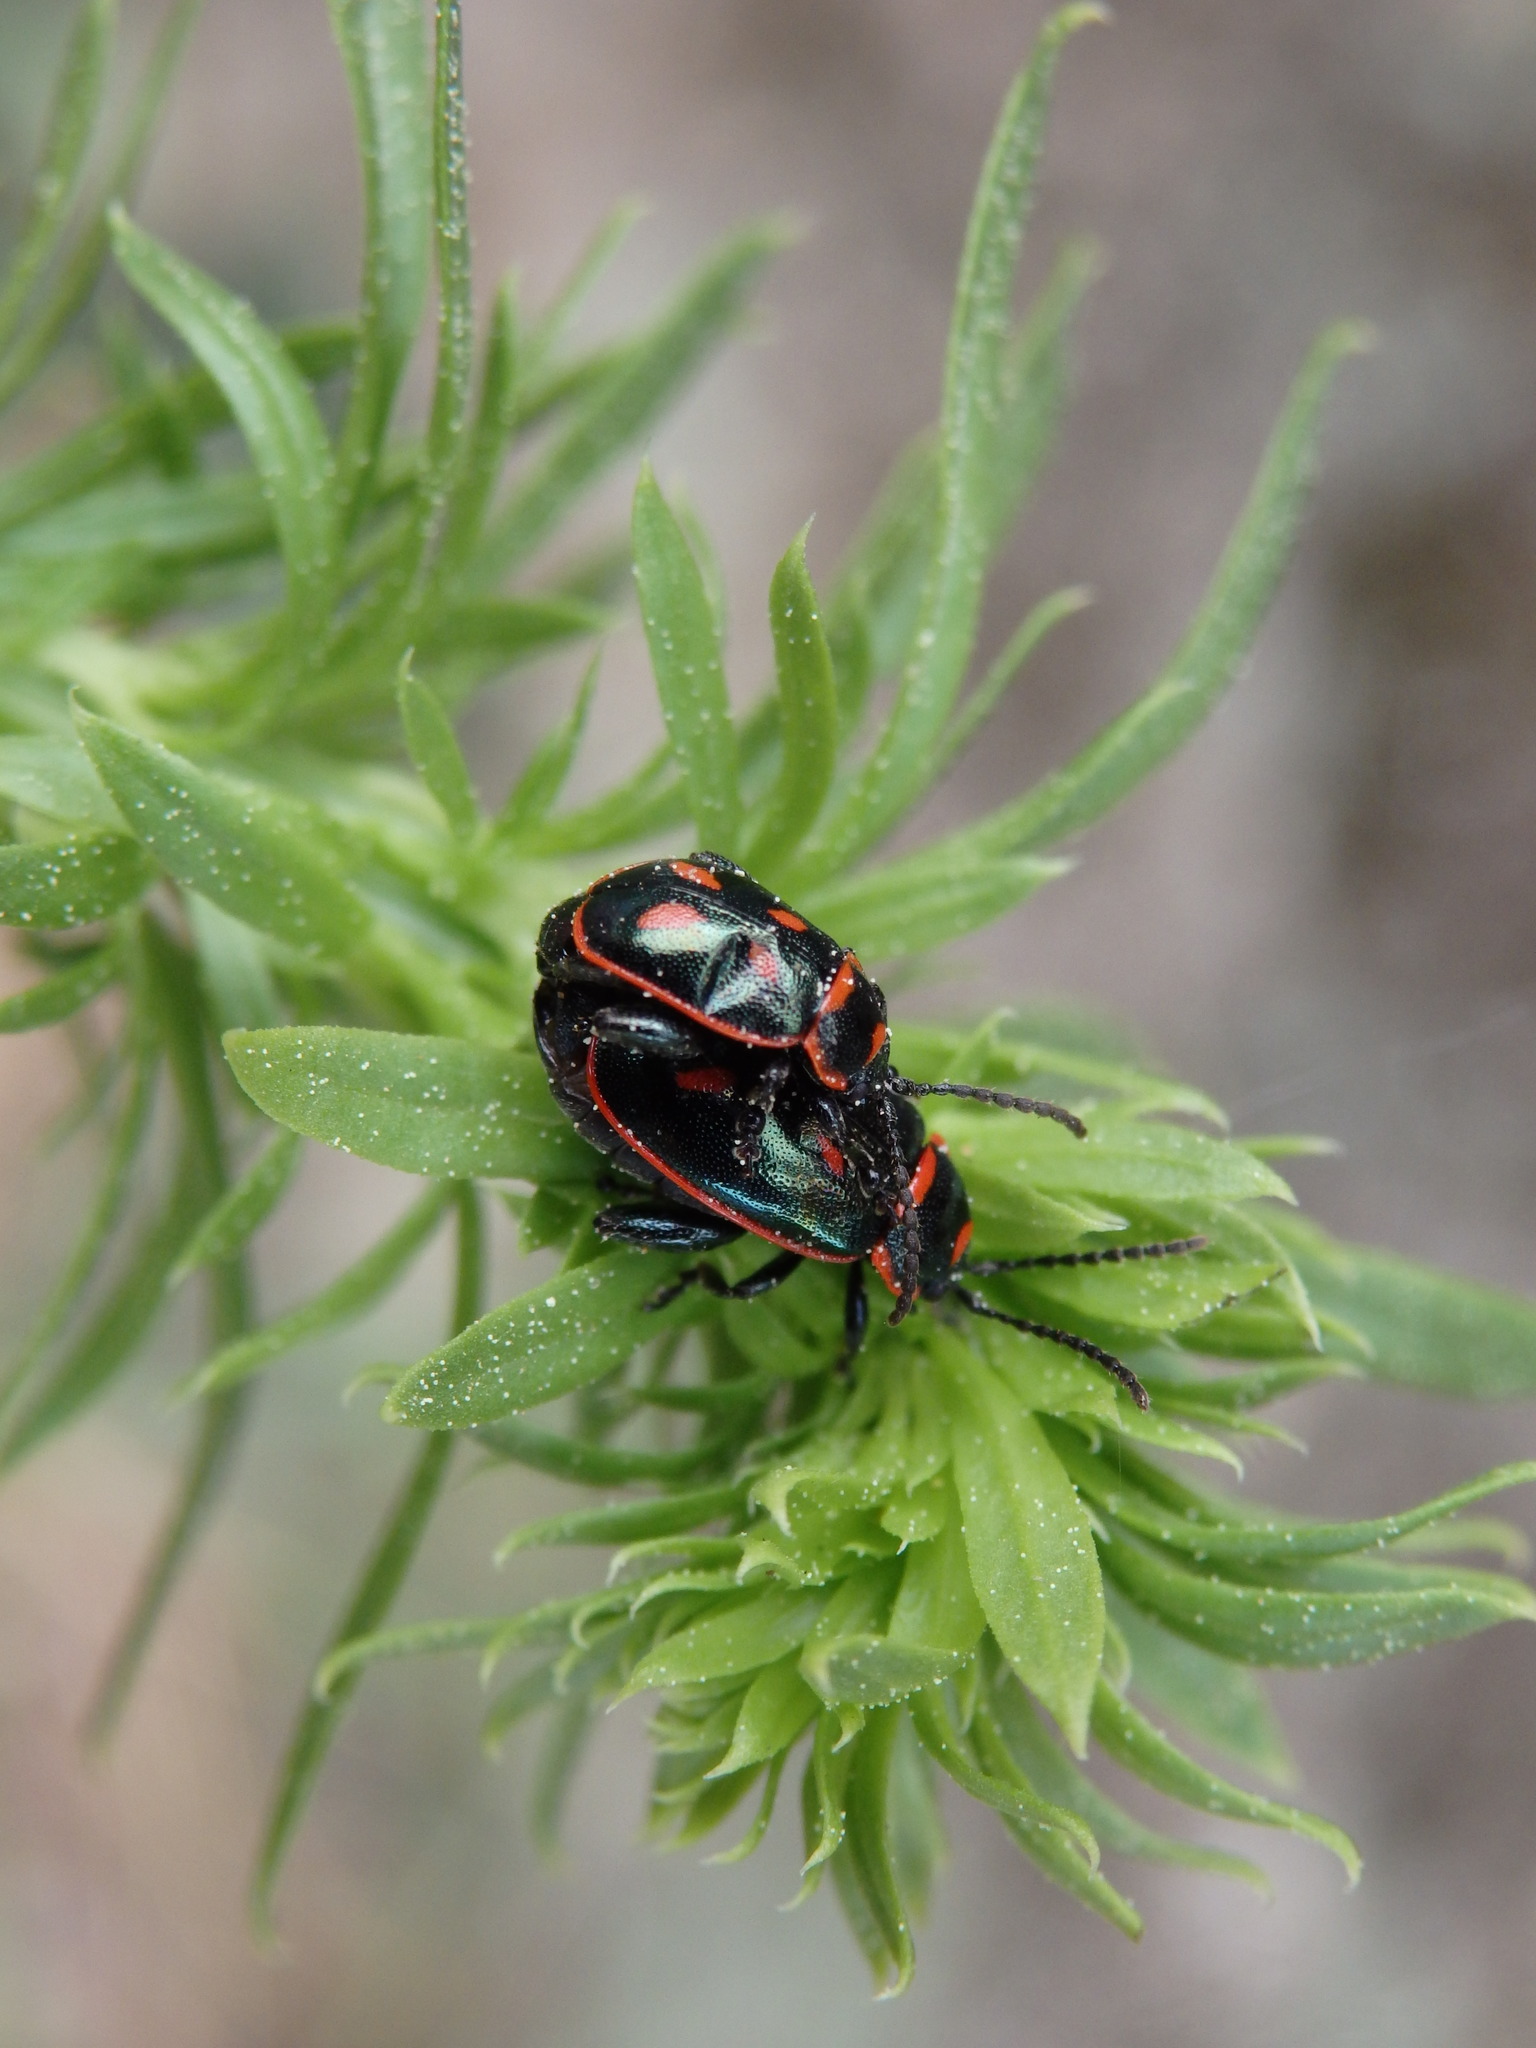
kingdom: Animalia
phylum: Arthropoda
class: Insecta
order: Coleoptera
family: Chrysomelidae
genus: Oedionychis
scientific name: Oedionychis cincta
